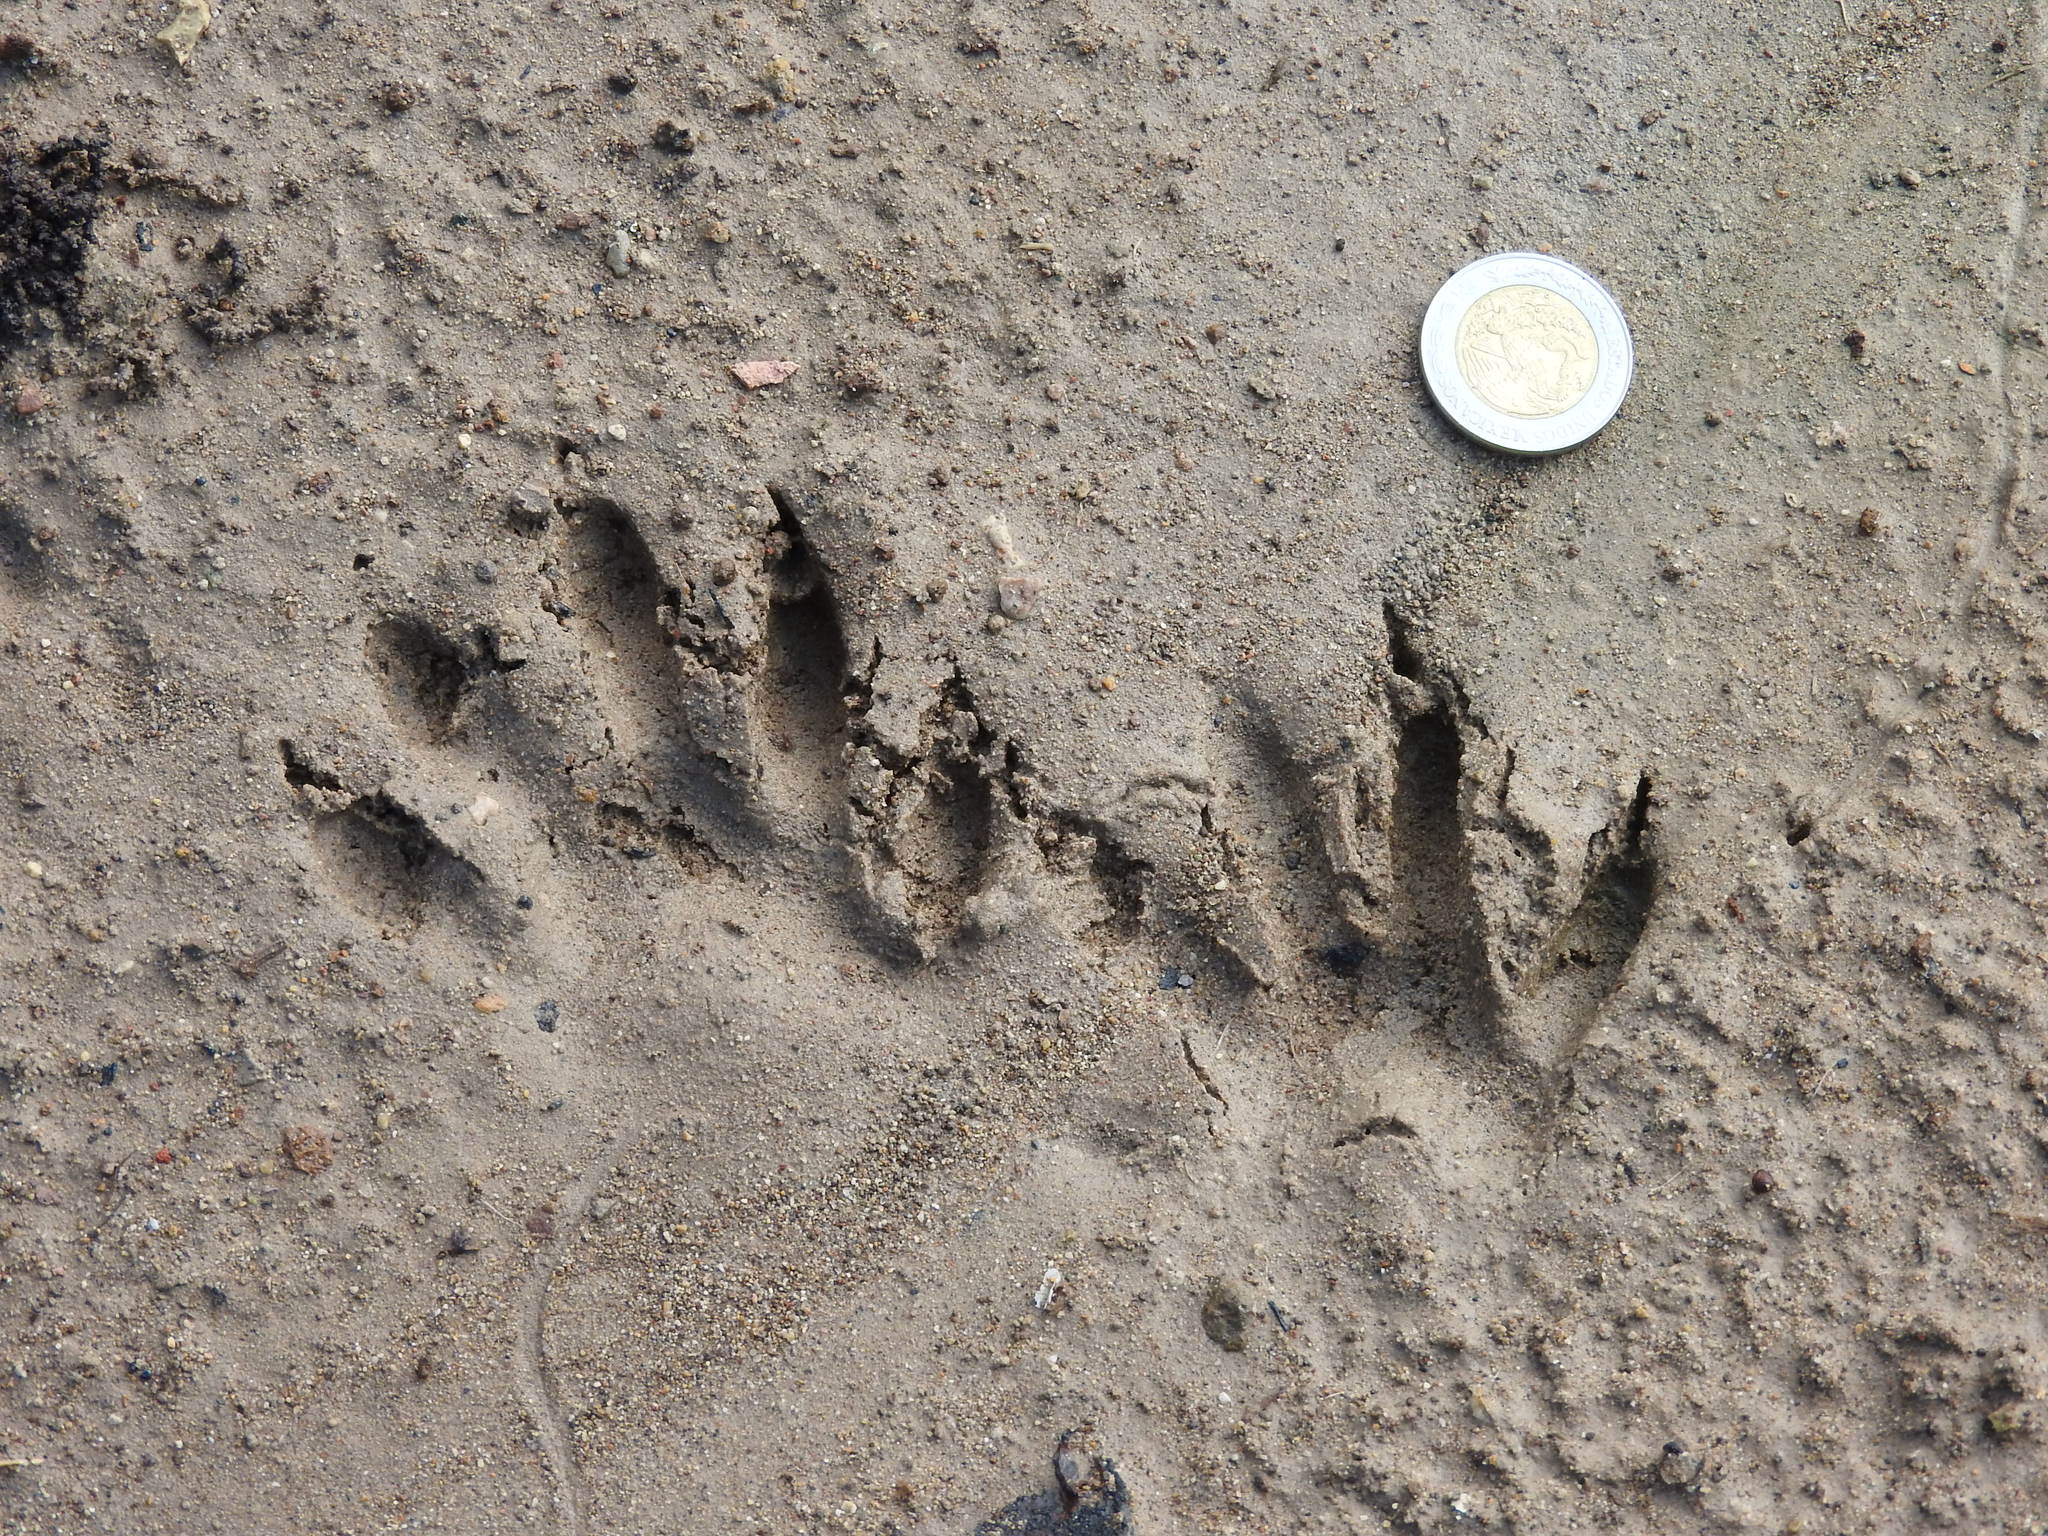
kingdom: Animalia
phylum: Chordata
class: Mammalia
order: Carnivora
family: Procyonidae
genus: Procyon
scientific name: Procyon lotor
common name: Raccoon
